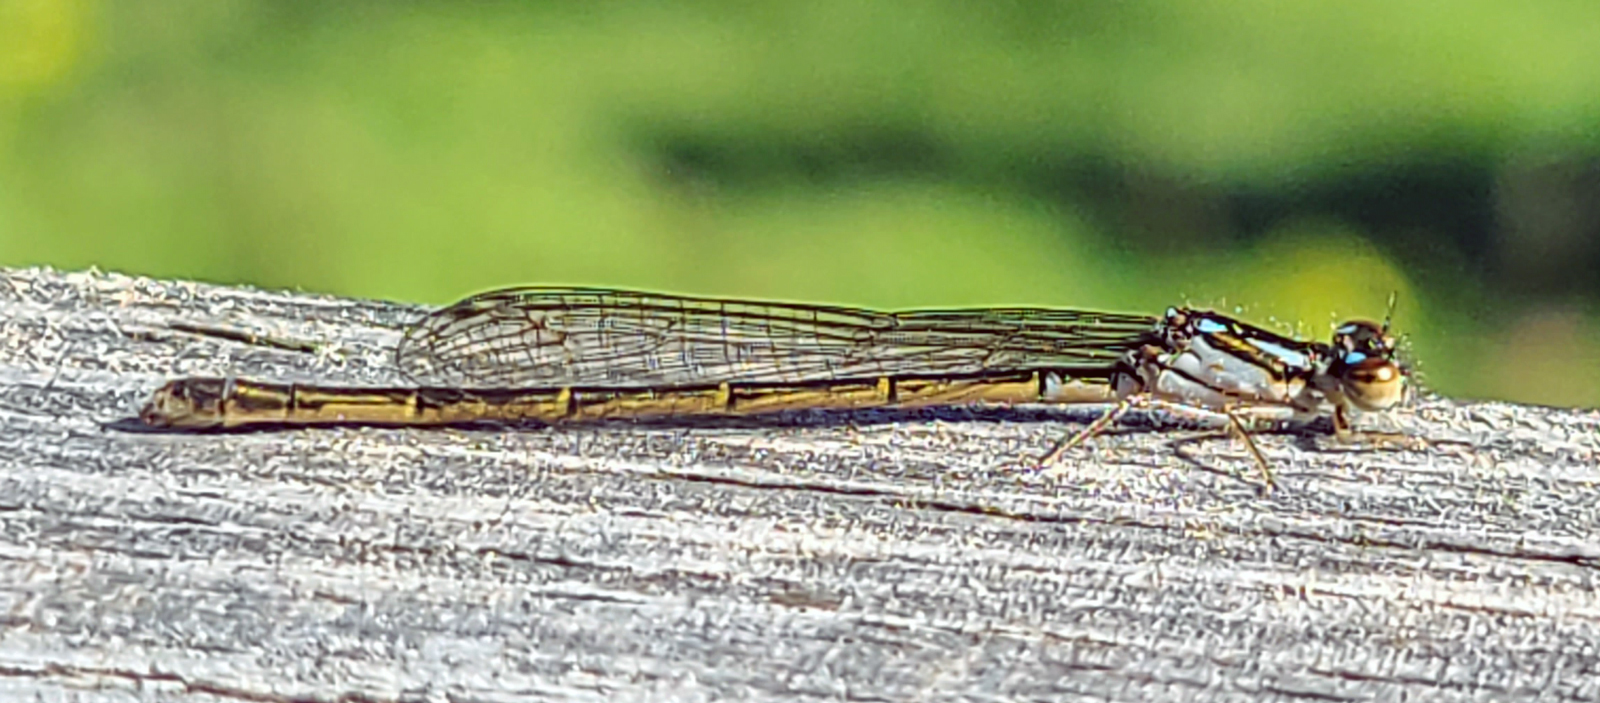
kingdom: Animalia
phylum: Arthropoda
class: Insecta
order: Odonata
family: Coenagrionidae
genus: Ischnura
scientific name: Ischnura posita
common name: Fragile forktail
